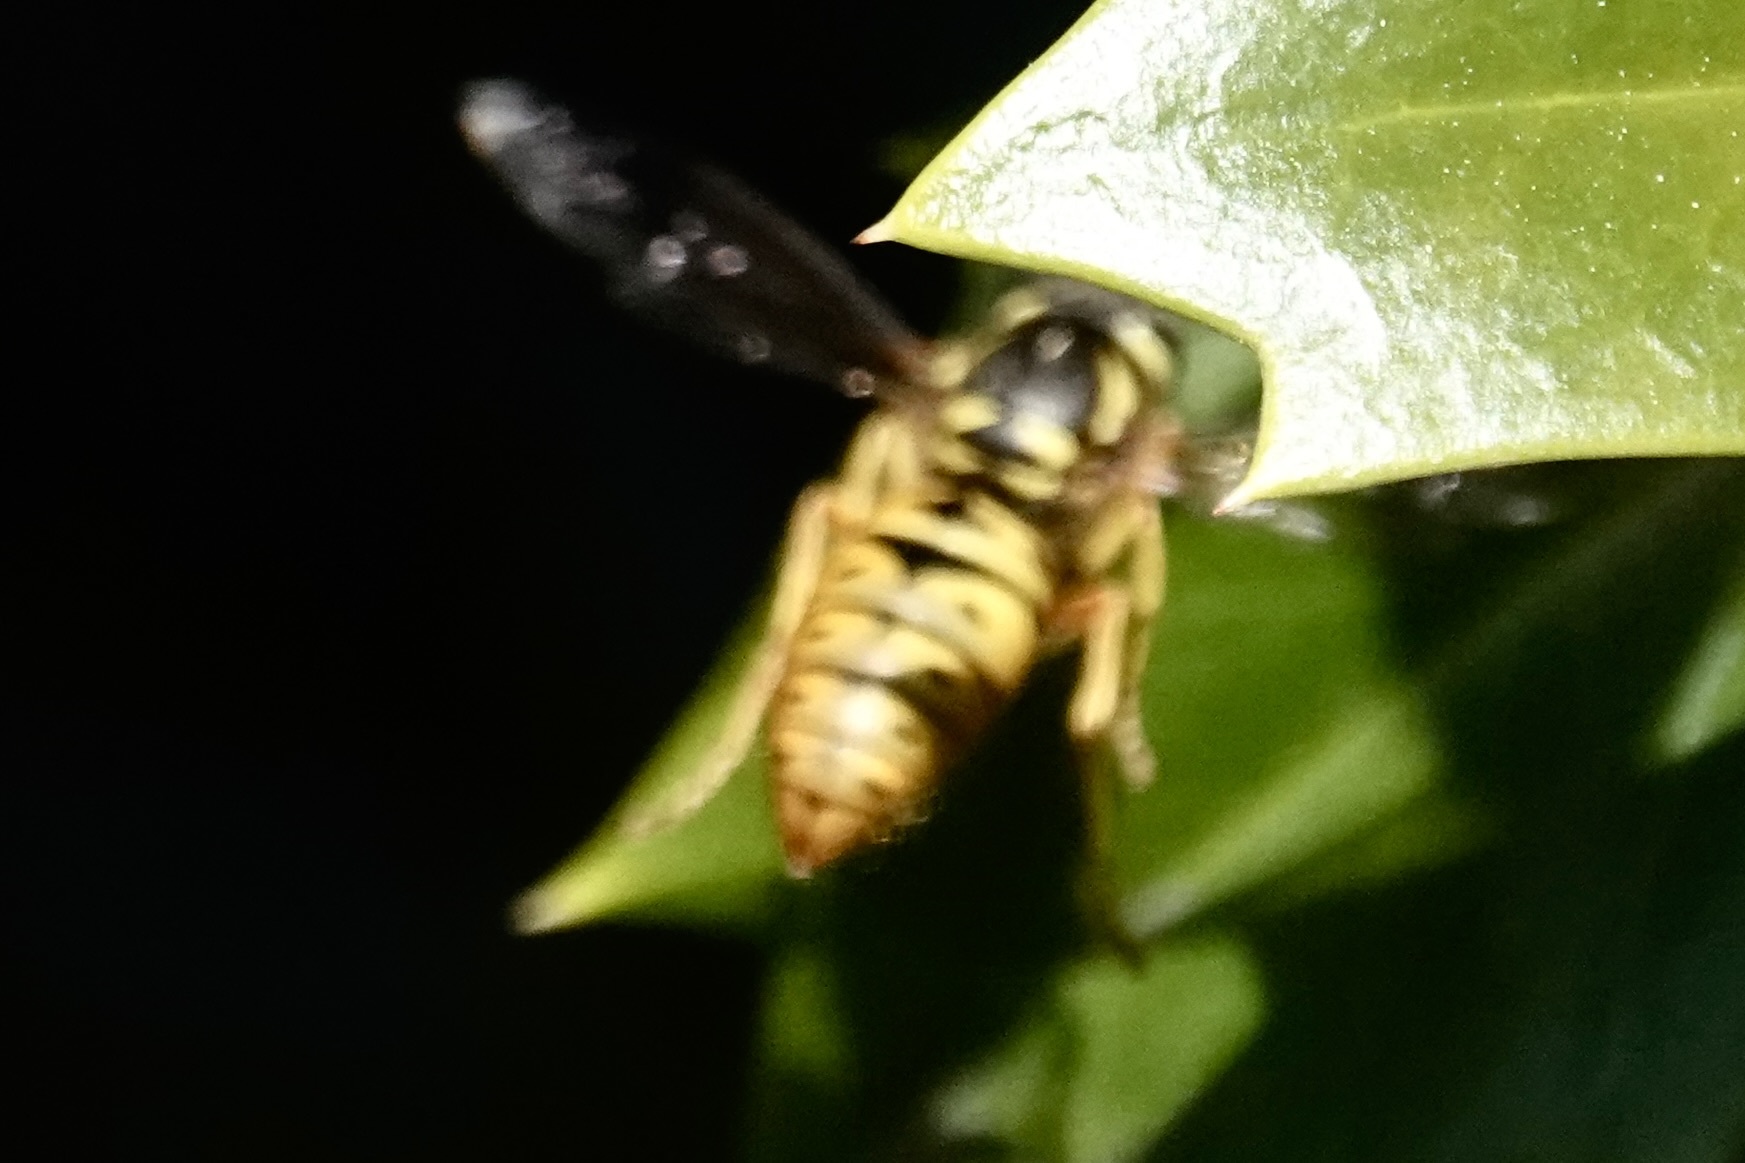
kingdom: Animalia
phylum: Arthropoda
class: Insecta
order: Hymenoptera
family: Vespidae
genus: Vespula
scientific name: Vespula maculifrons
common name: Eastern yellowjacket
